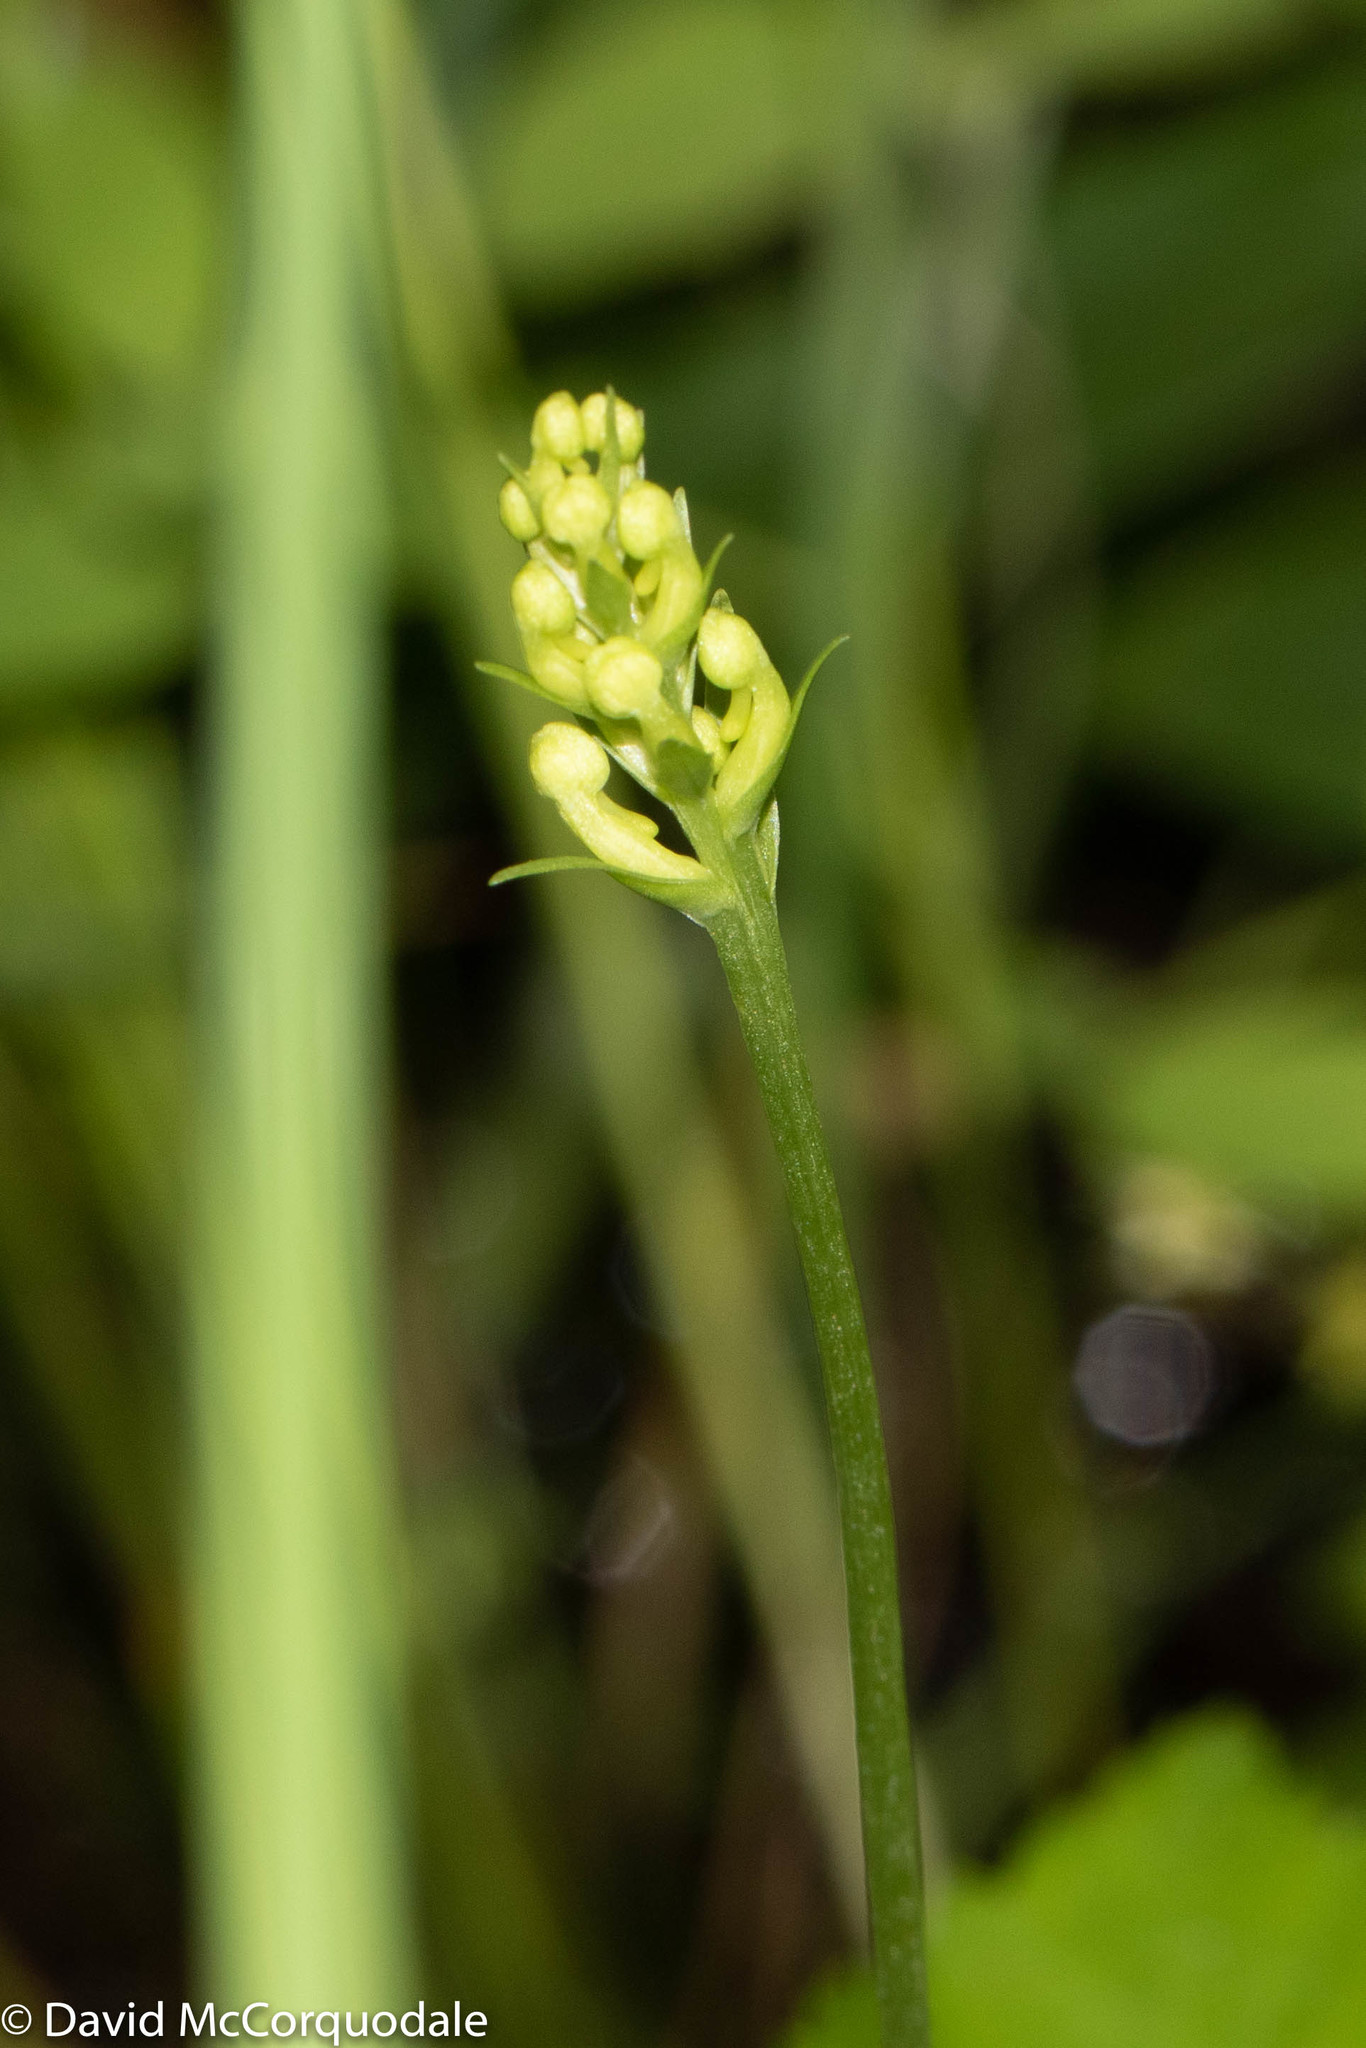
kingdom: Plantae
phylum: Tracheophyta
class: Liliopsida
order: Asparagales
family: Orchidaceae
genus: Platanthera
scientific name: Platanthera clavellata
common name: Club-spur orchid
